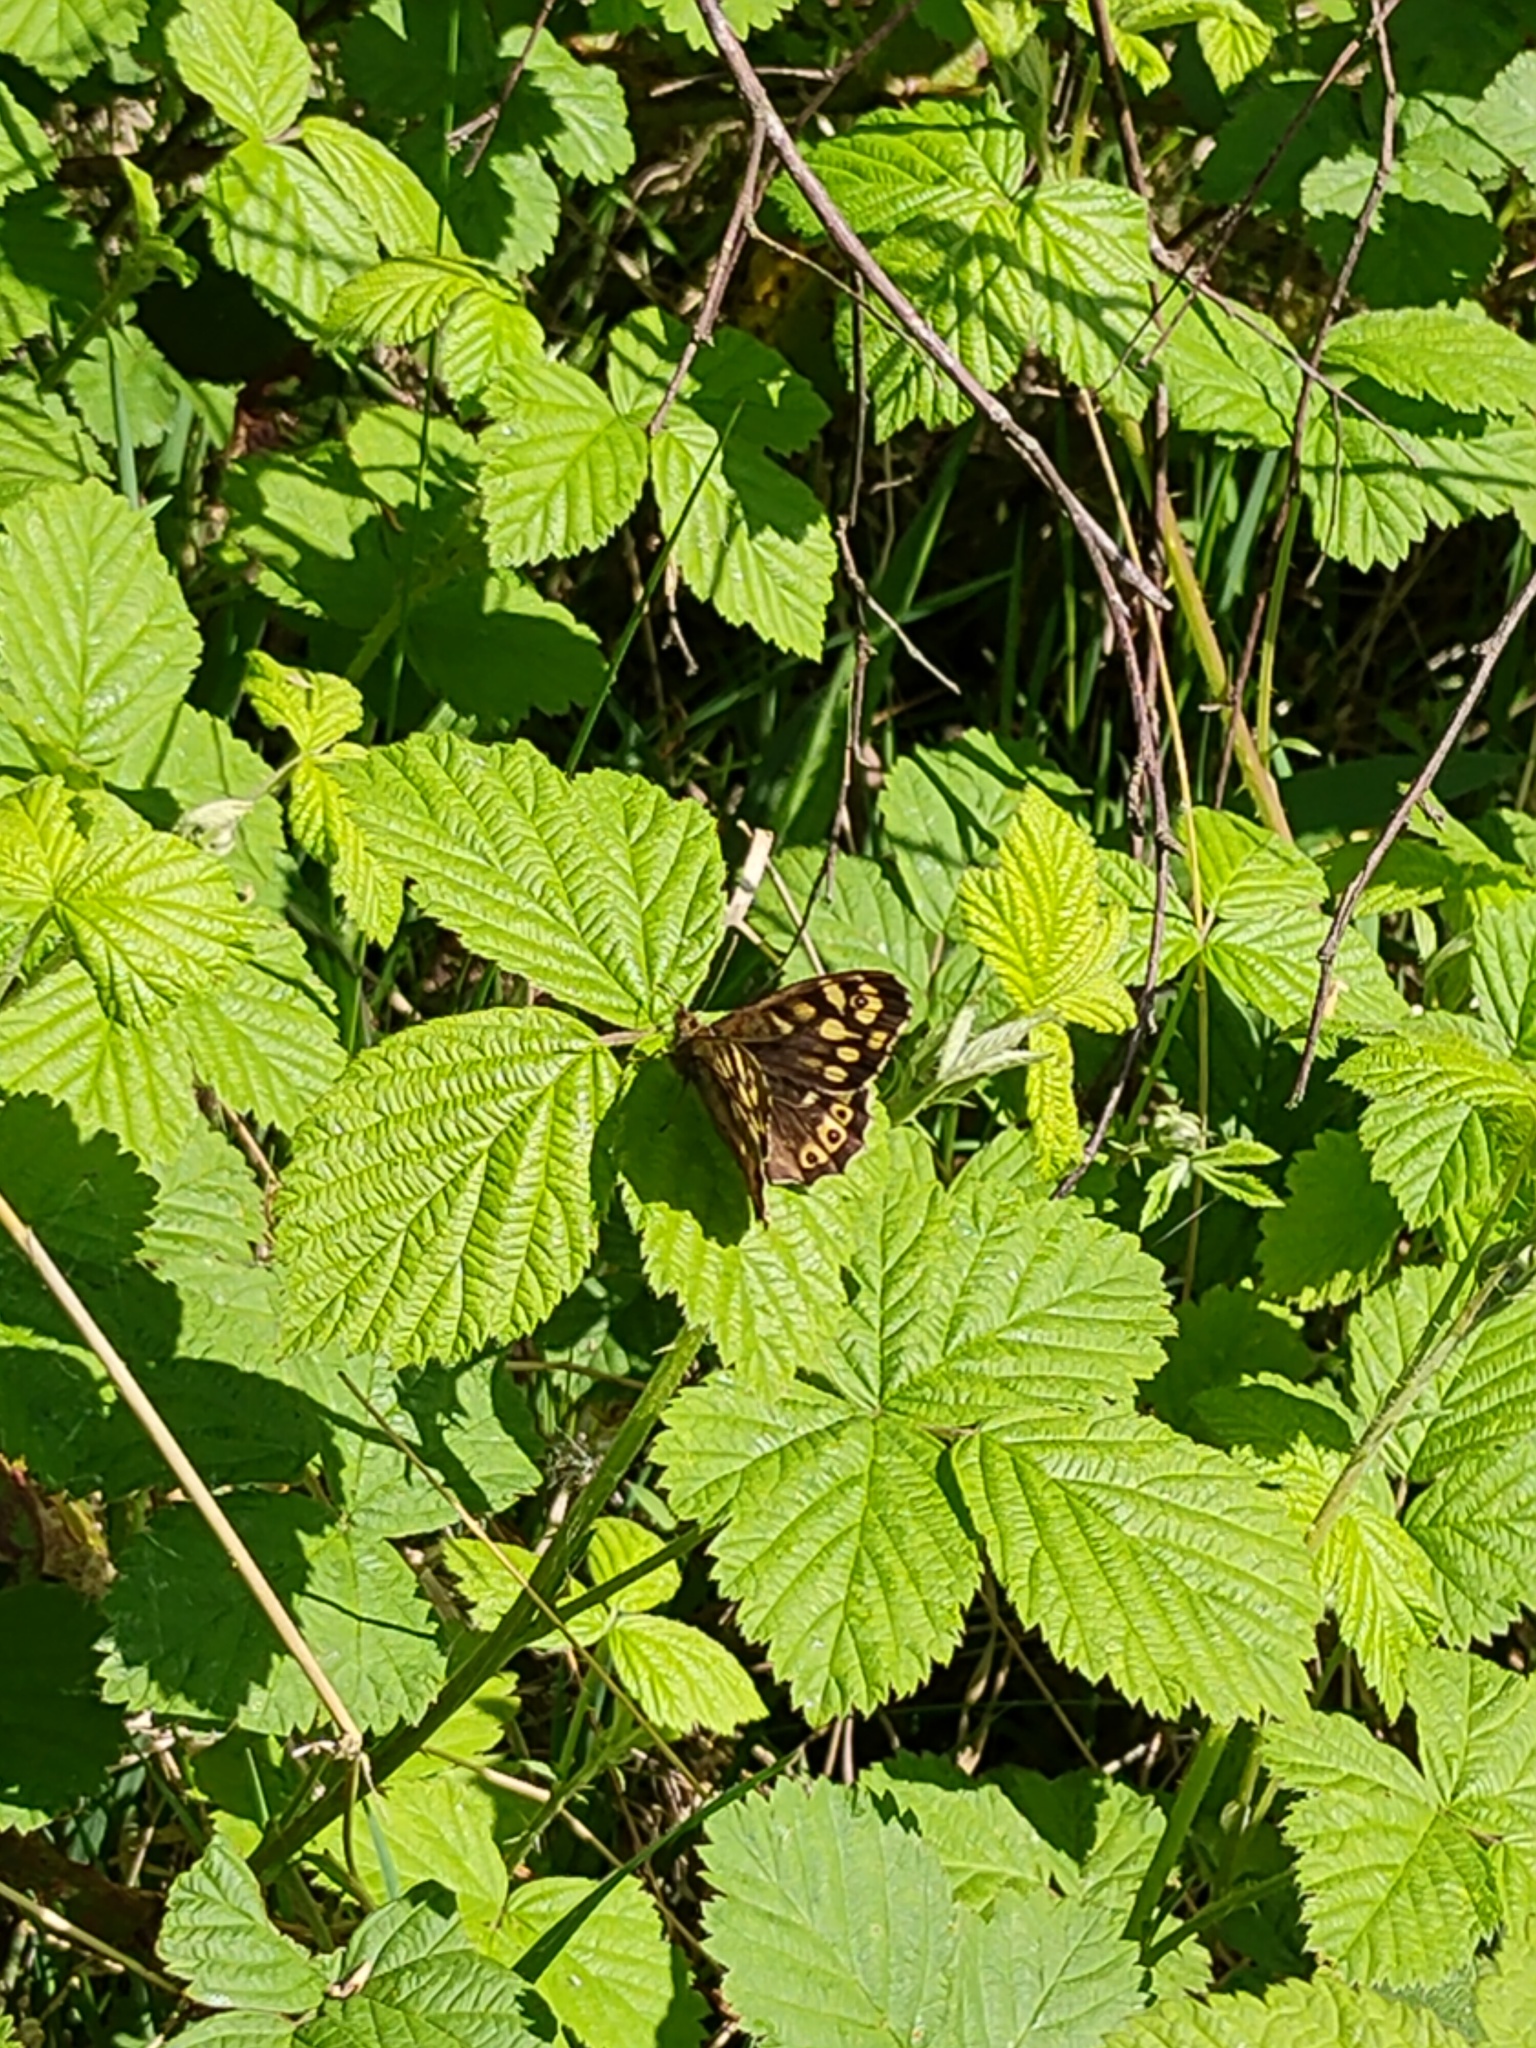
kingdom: Animalia
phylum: Arthropoda
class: Insecta
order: Lepidoptera
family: Nymphalidae
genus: Pararge
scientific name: Pararge aegeria
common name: Speckled wood
